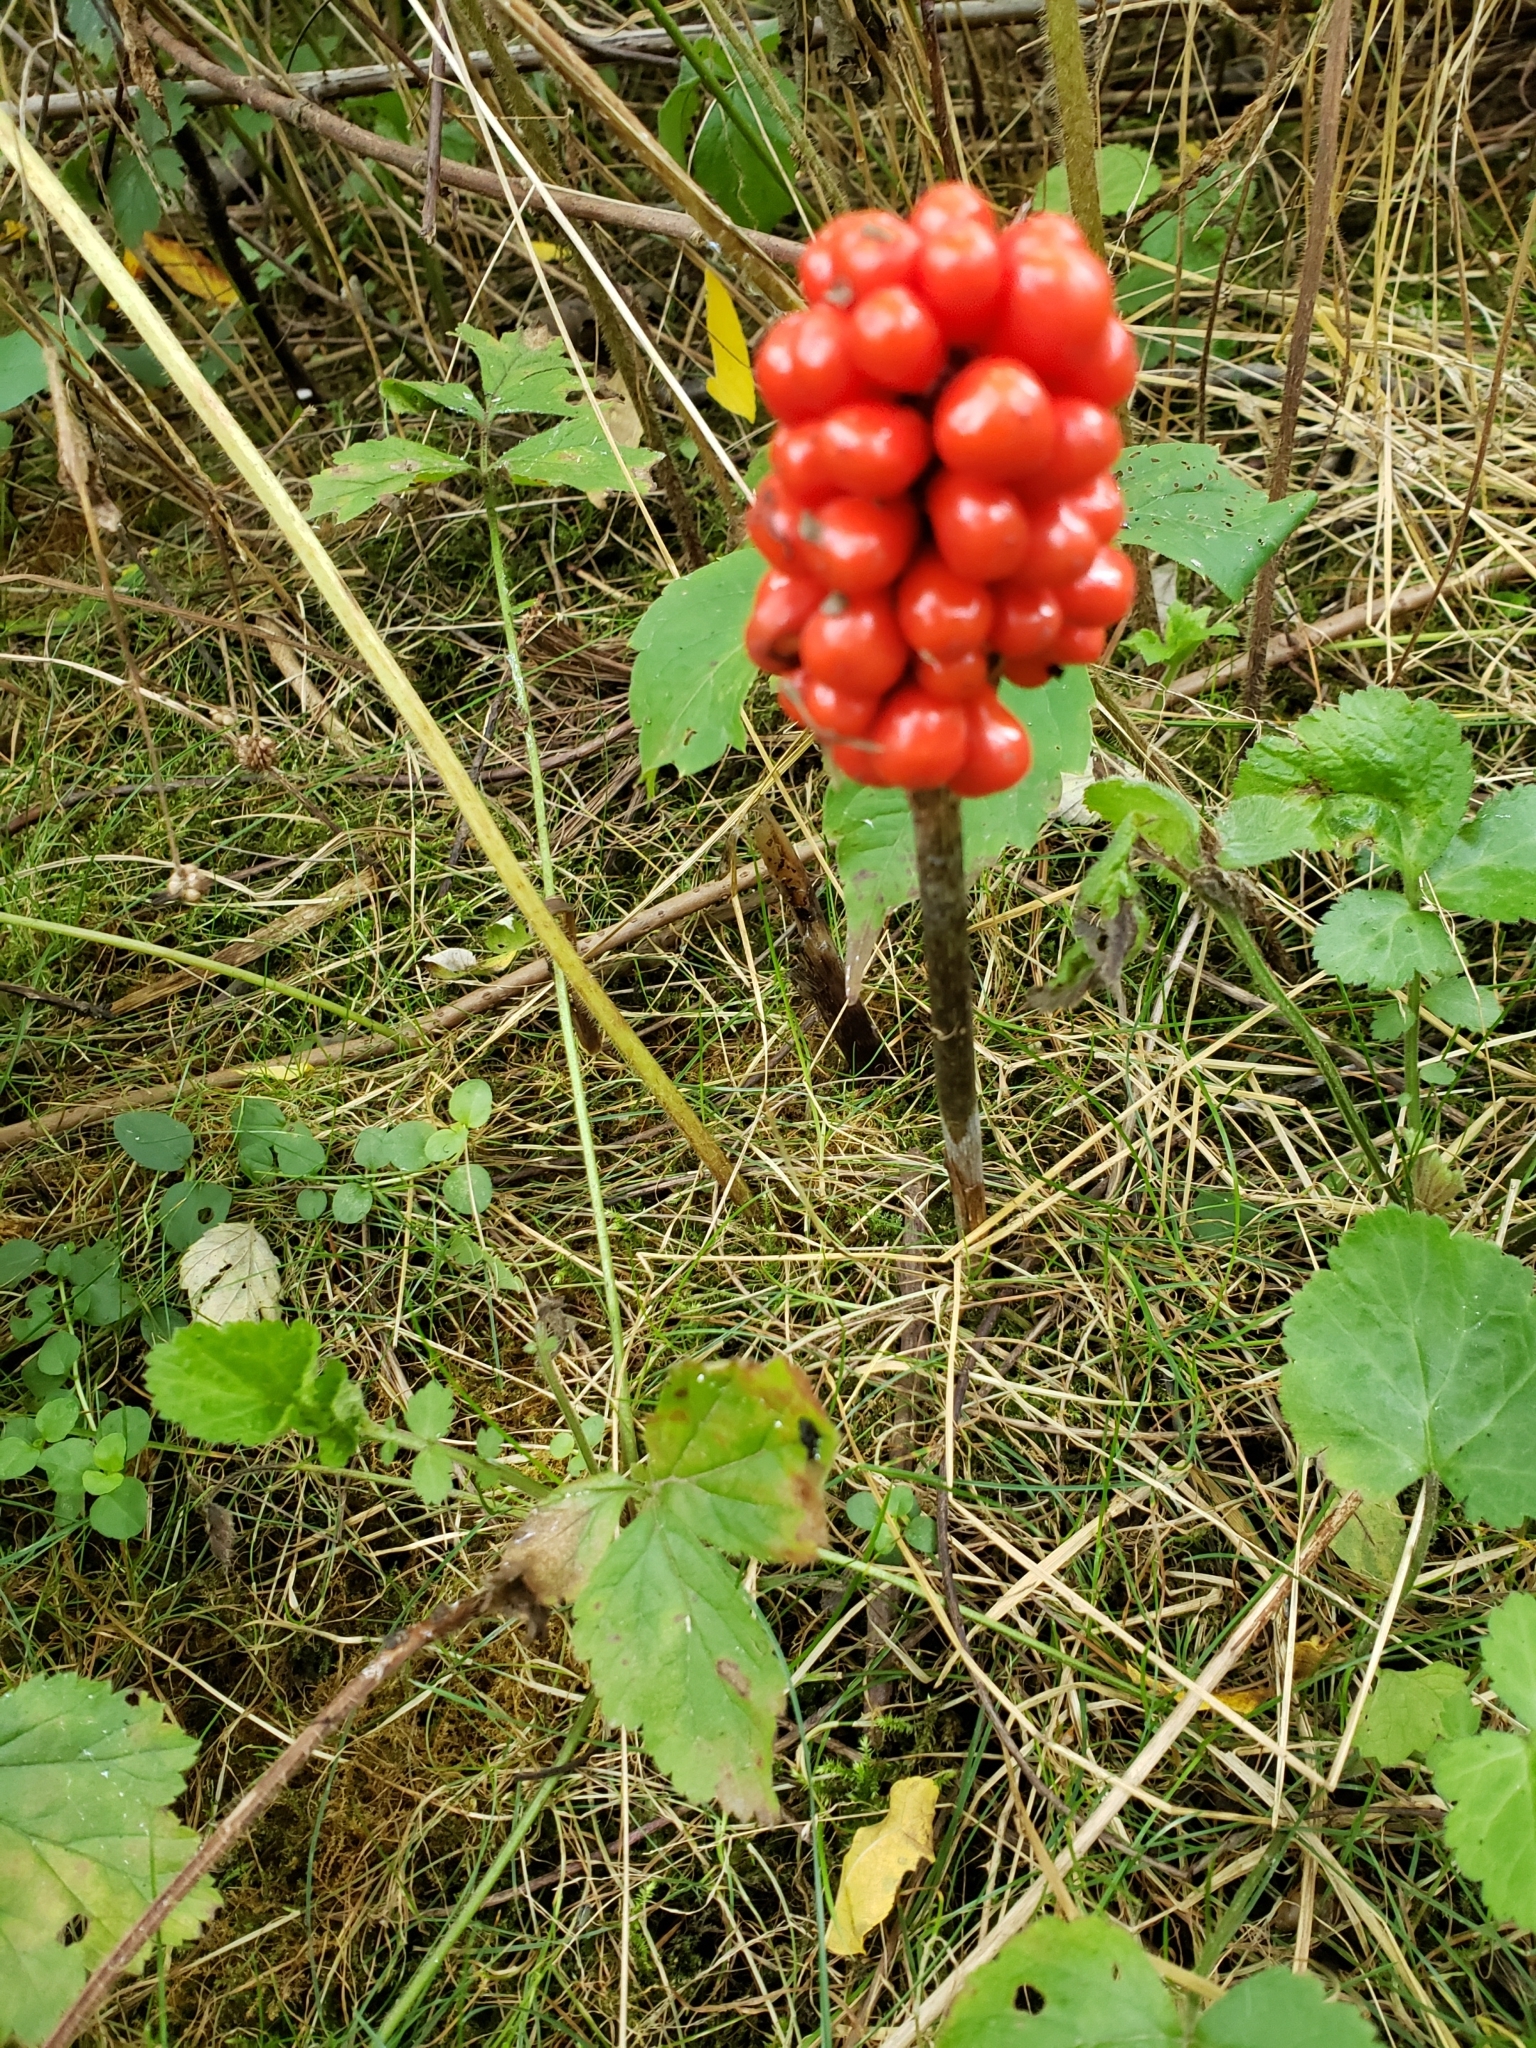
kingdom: Plantae
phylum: Tracheophyta
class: Liliopsida
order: Alismatales
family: Araceae
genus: Arisaema
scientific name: Arisaema triphyllum
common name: Jack-in-the-pulpit
